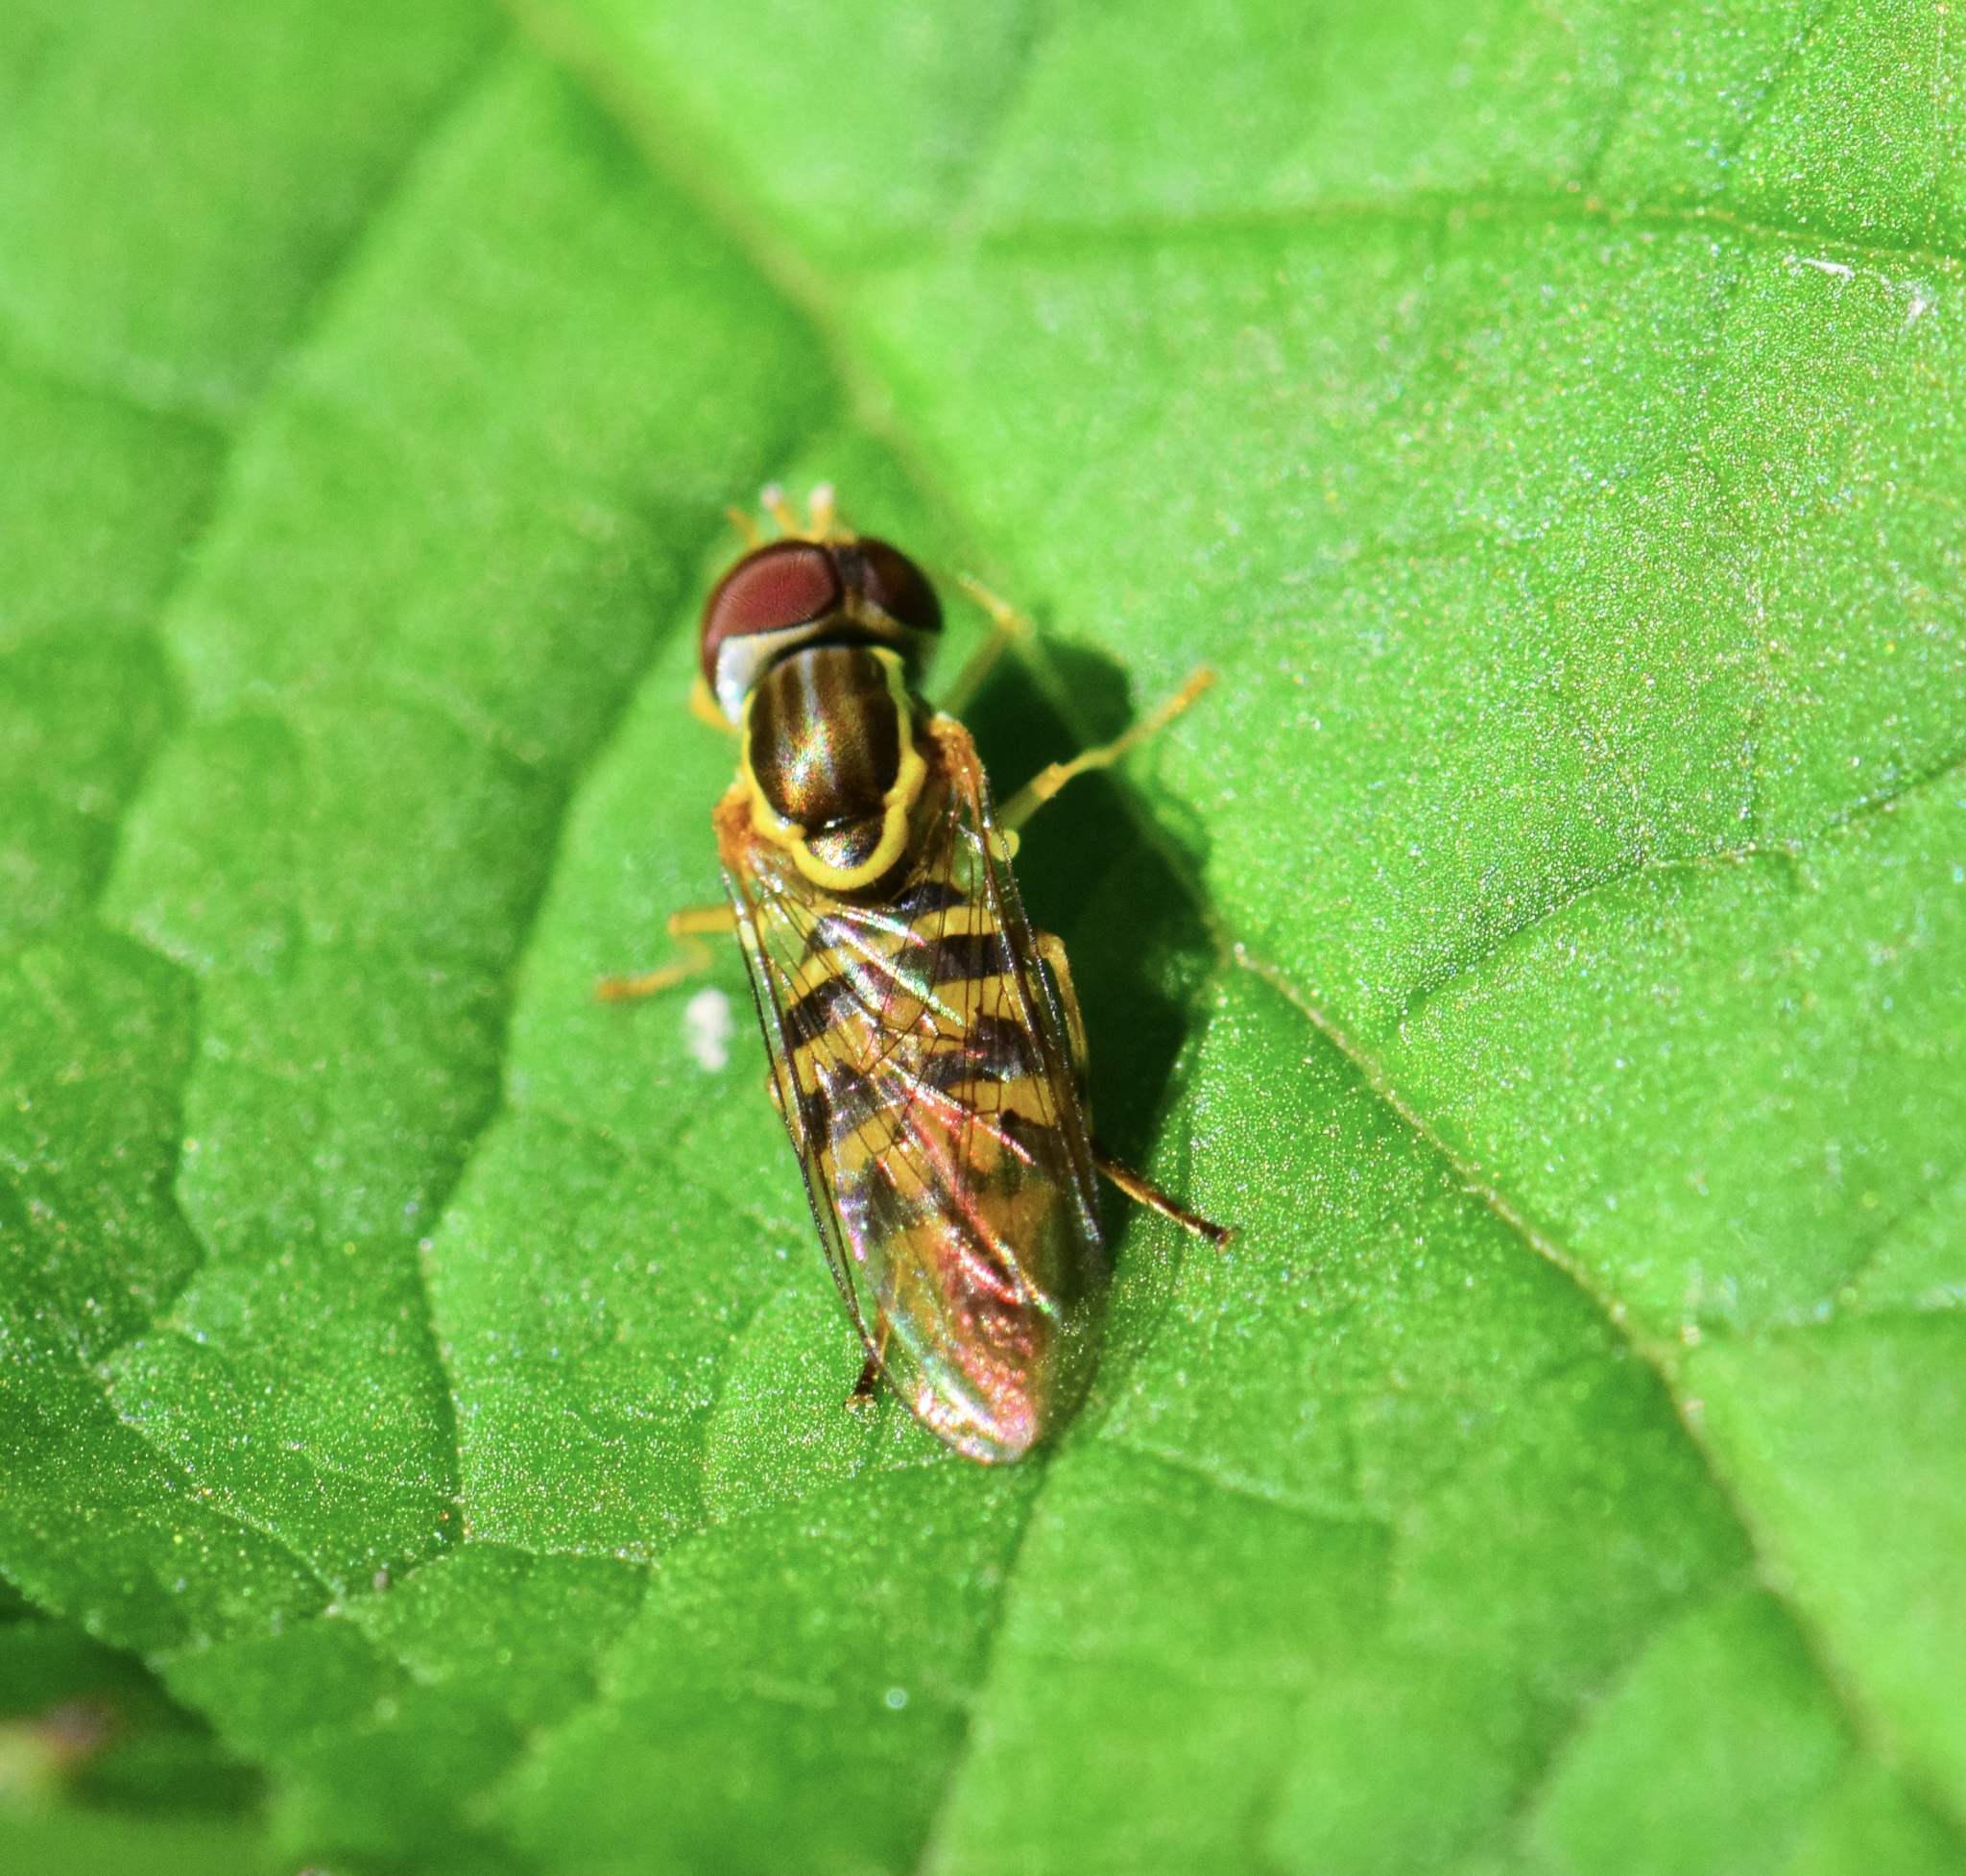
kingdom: Animalia
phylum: Arthropoda
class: Insecta
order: Diptera
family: Syrphidae
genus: Toxomerus
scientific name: Toxomerus geminatus
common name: Eastern calligrapher
